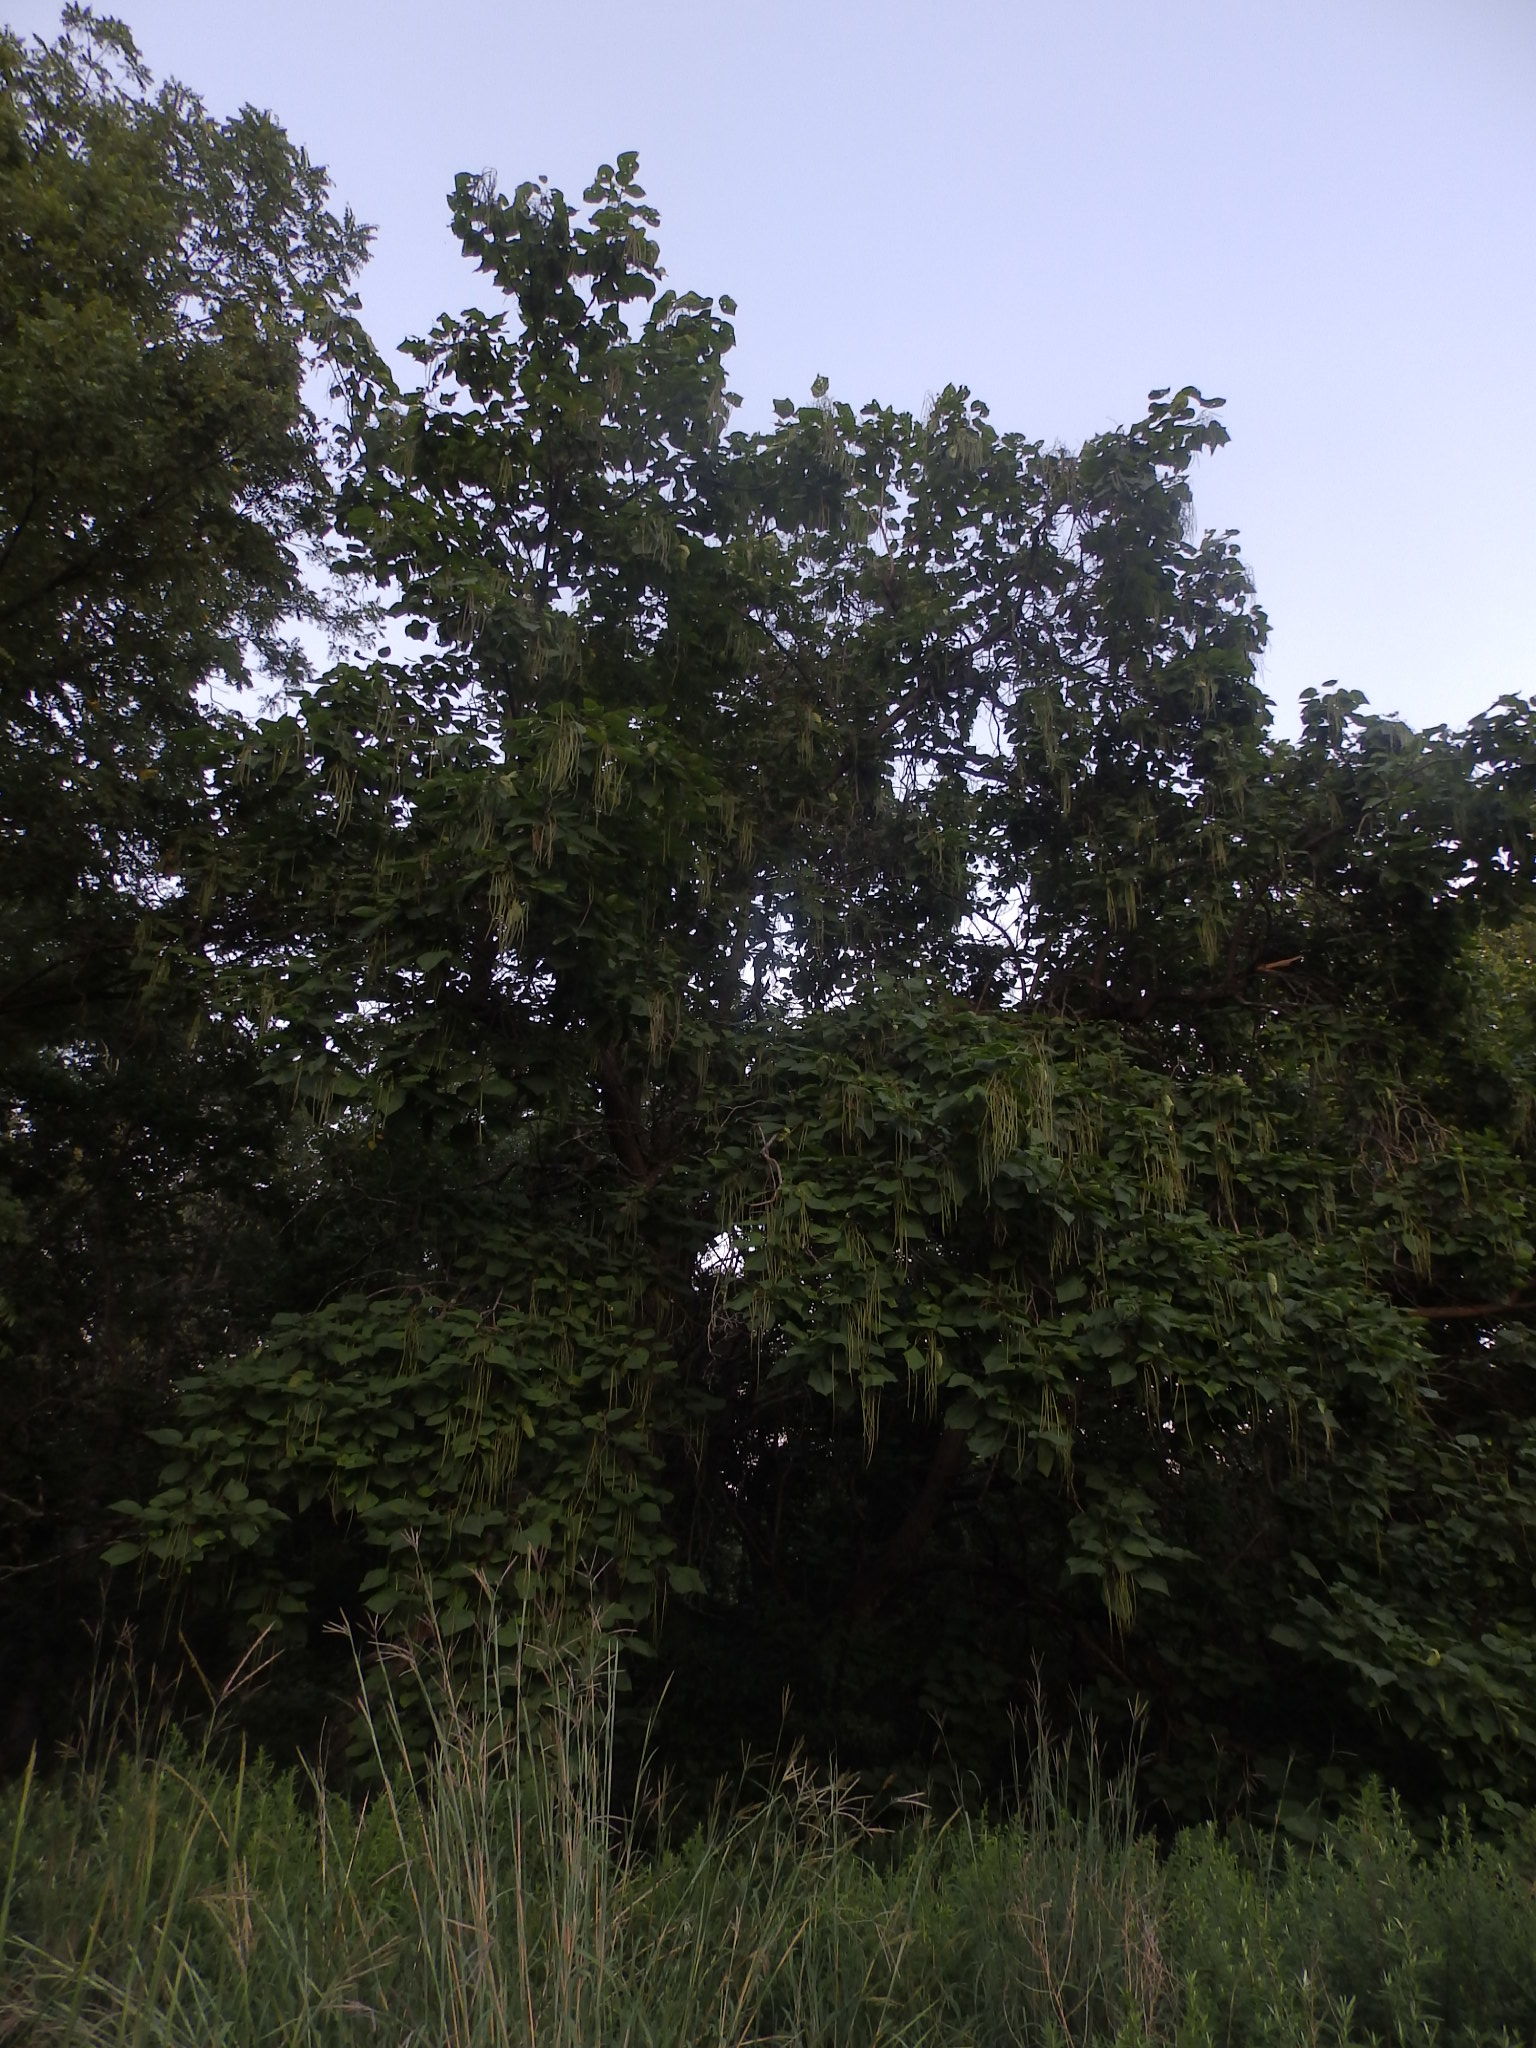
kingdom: Plantae
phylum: Tracheophyta
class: Magnoliopsida
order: Lamiales
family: Bignoniaceae
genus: Catalpa
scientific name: Catalpa speciosa
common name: Northern catalpa
